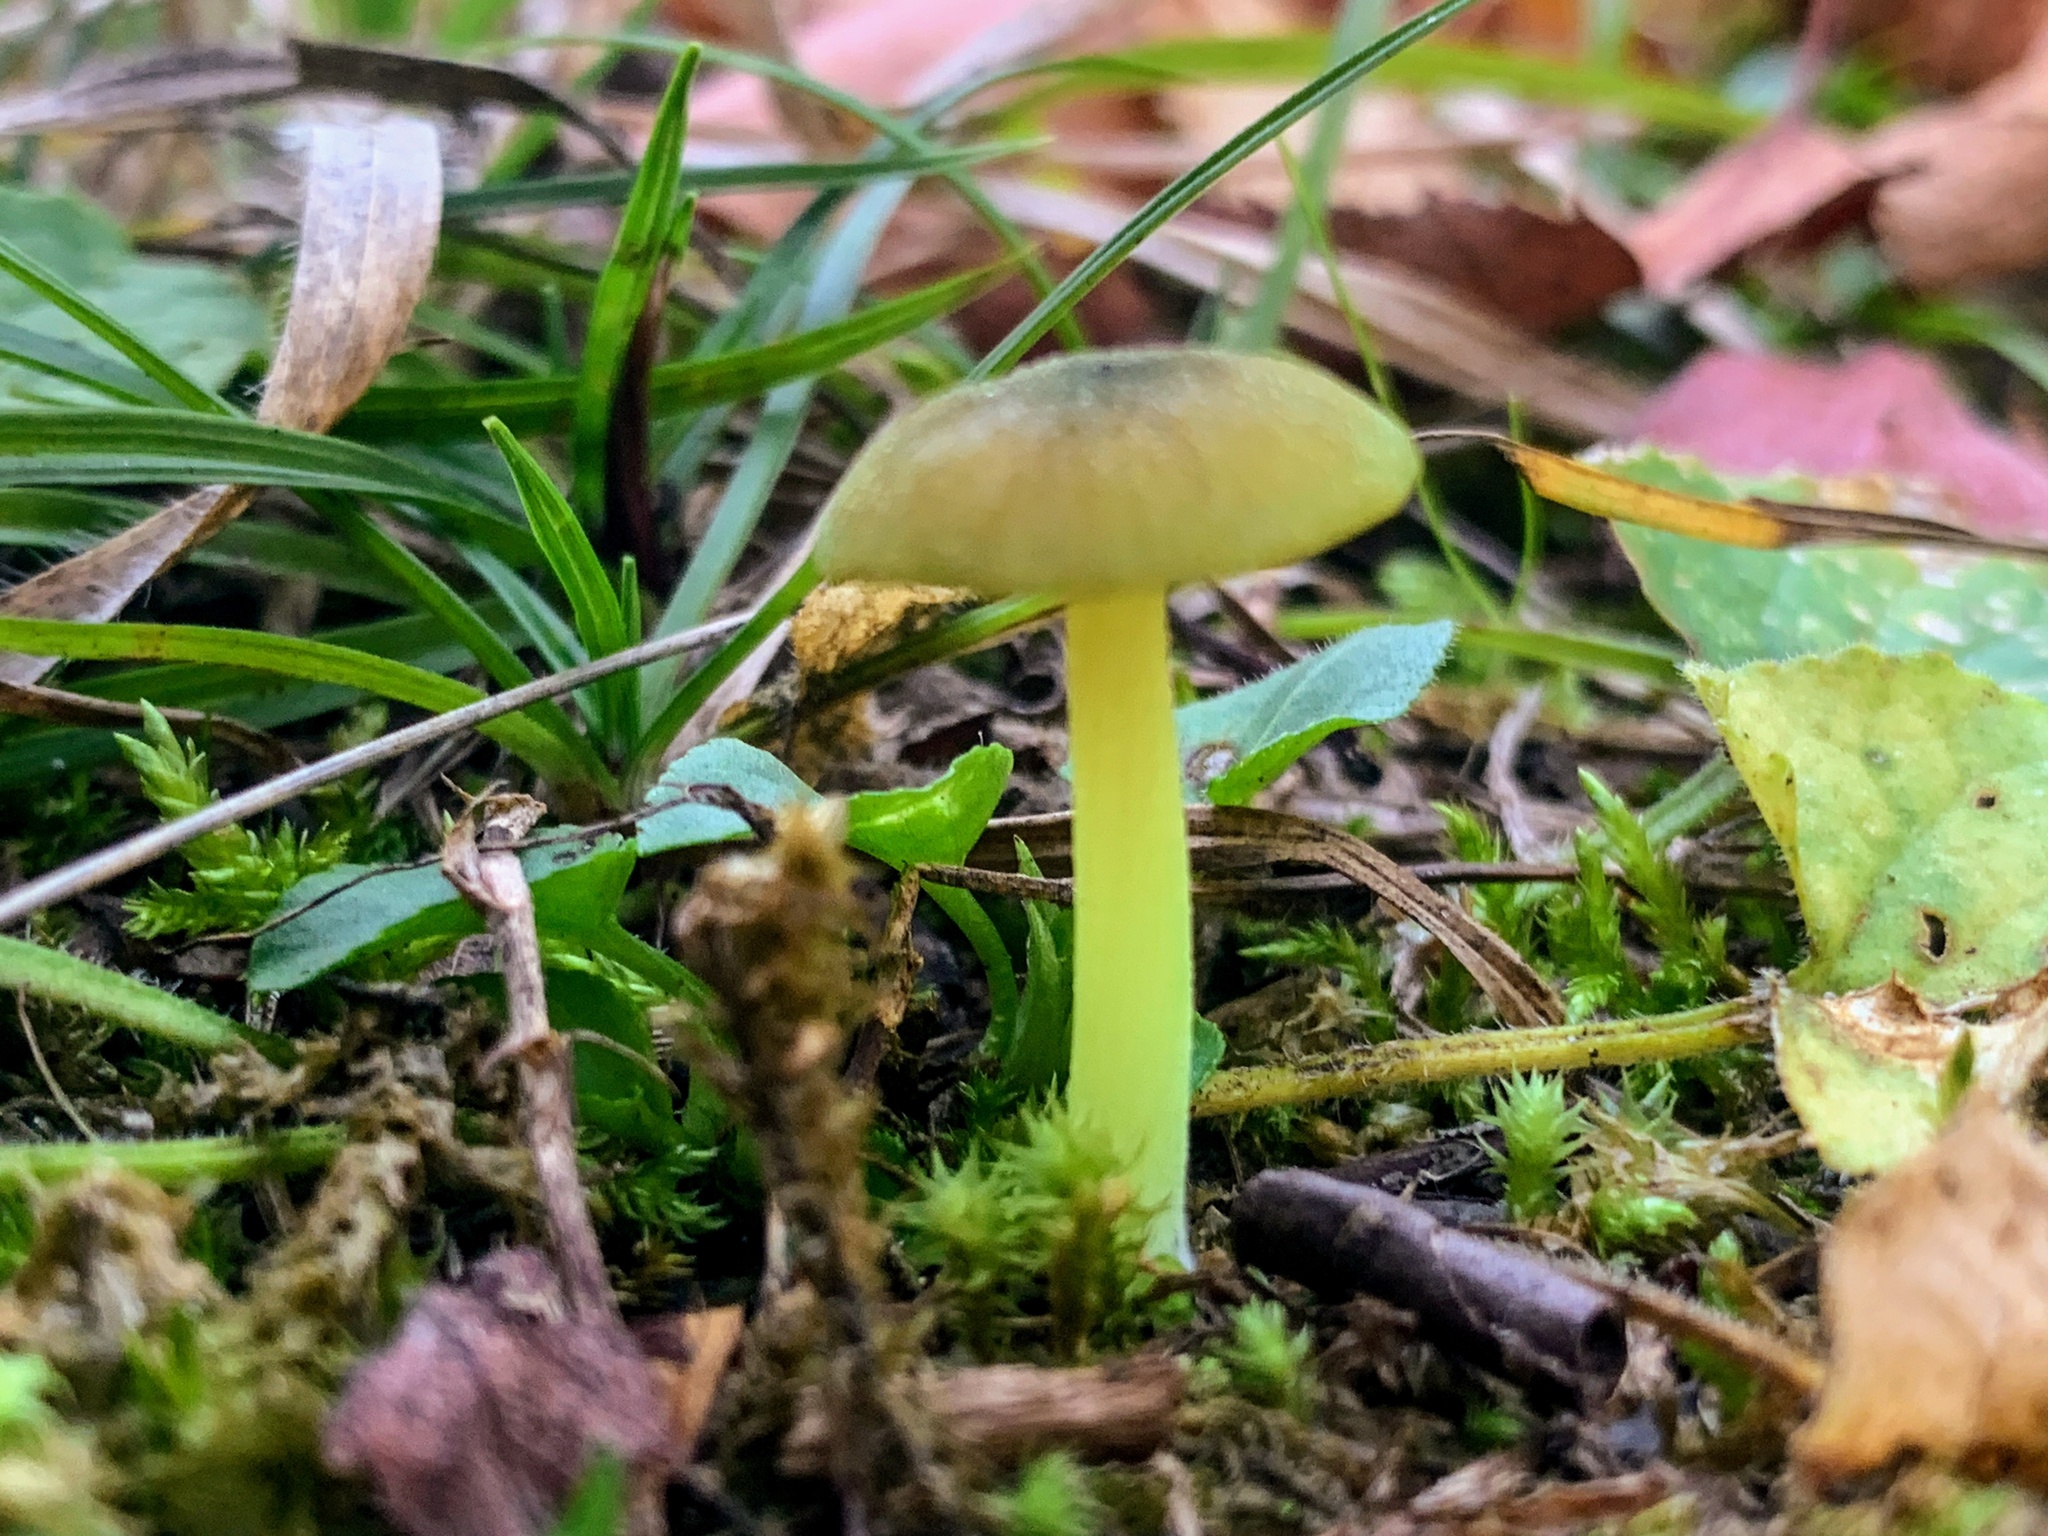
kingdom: Fungi
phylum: Basidiomycota
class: Agaricomycetes
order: Agaricales
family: Entolomataceae
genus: Entoloma
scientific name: Entoloma incanum
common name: Mousepee pinkgill
